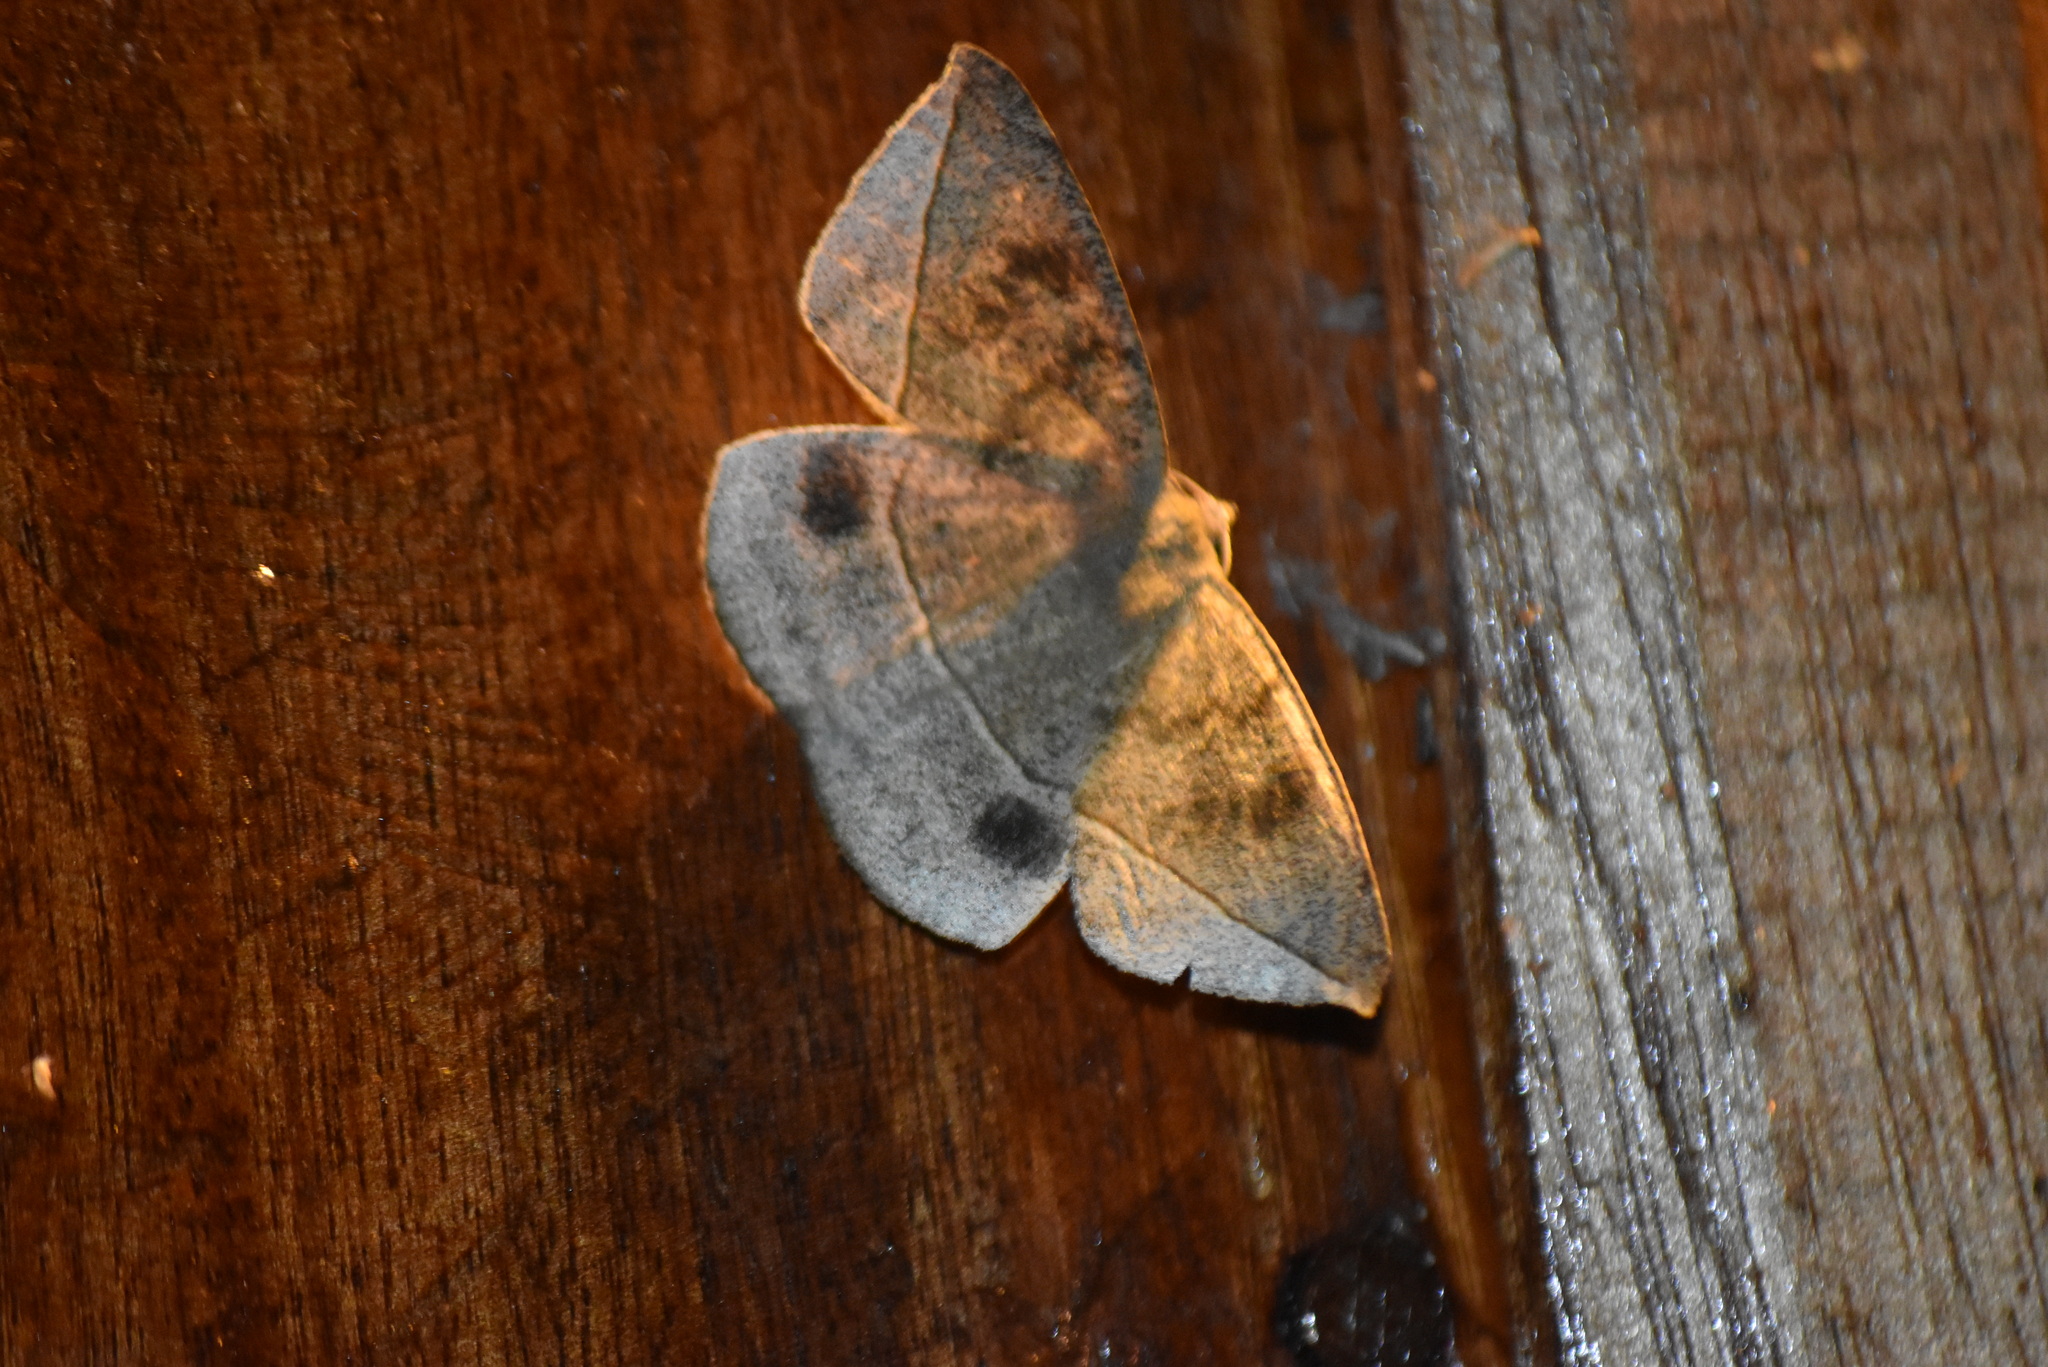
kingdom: Animalia
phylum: Arthropoda
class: Insecta
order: Lepidoptera
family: Geometridae
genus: Oxydia
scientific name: Oxydia vesulia
